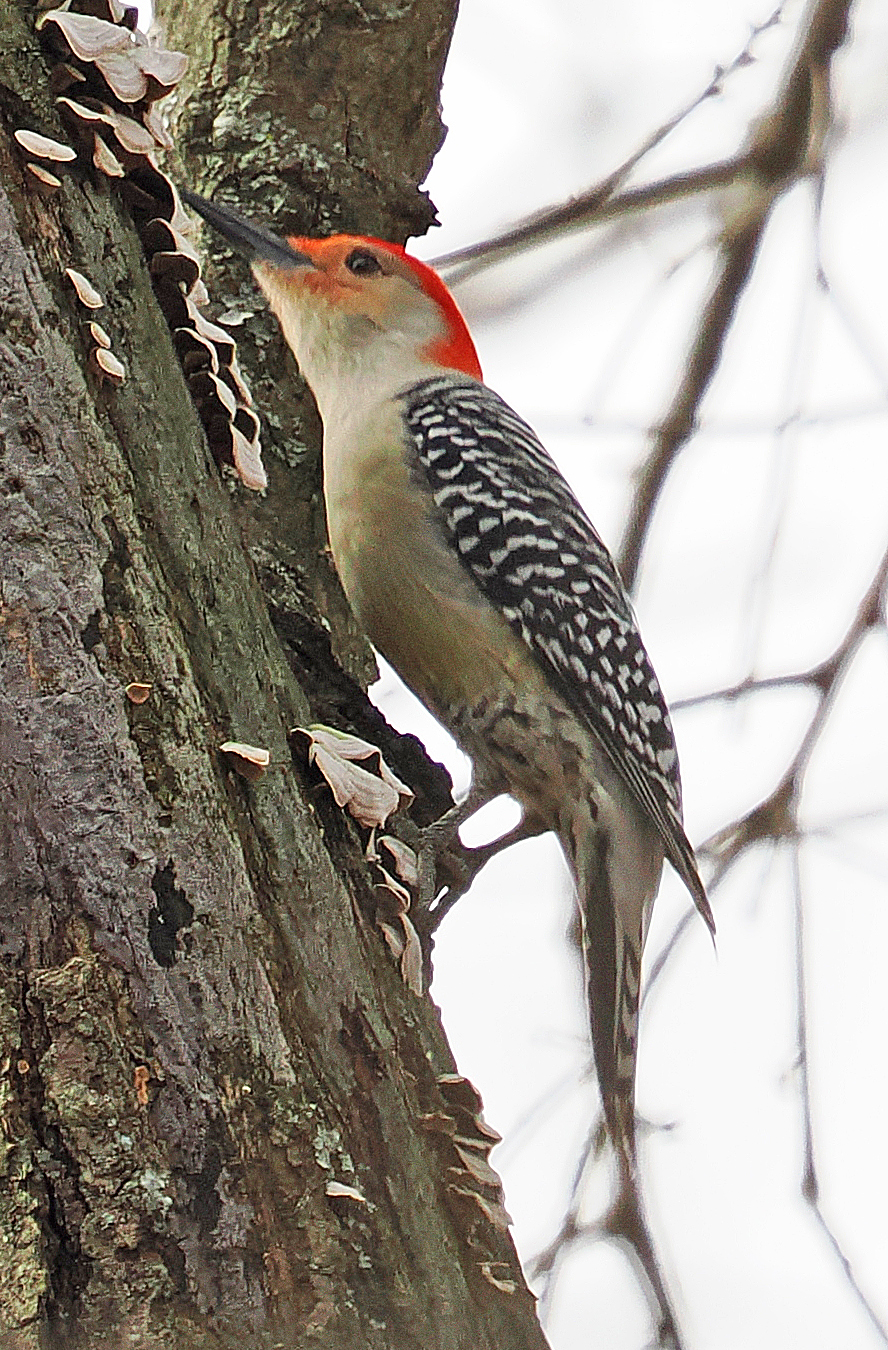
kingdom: Animalia
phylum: Chordata
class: Aves
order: Piciformes
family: Picidae
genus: Melanerpes
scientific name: Melanerpes carolinus
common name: Red-bellied woodpecker
